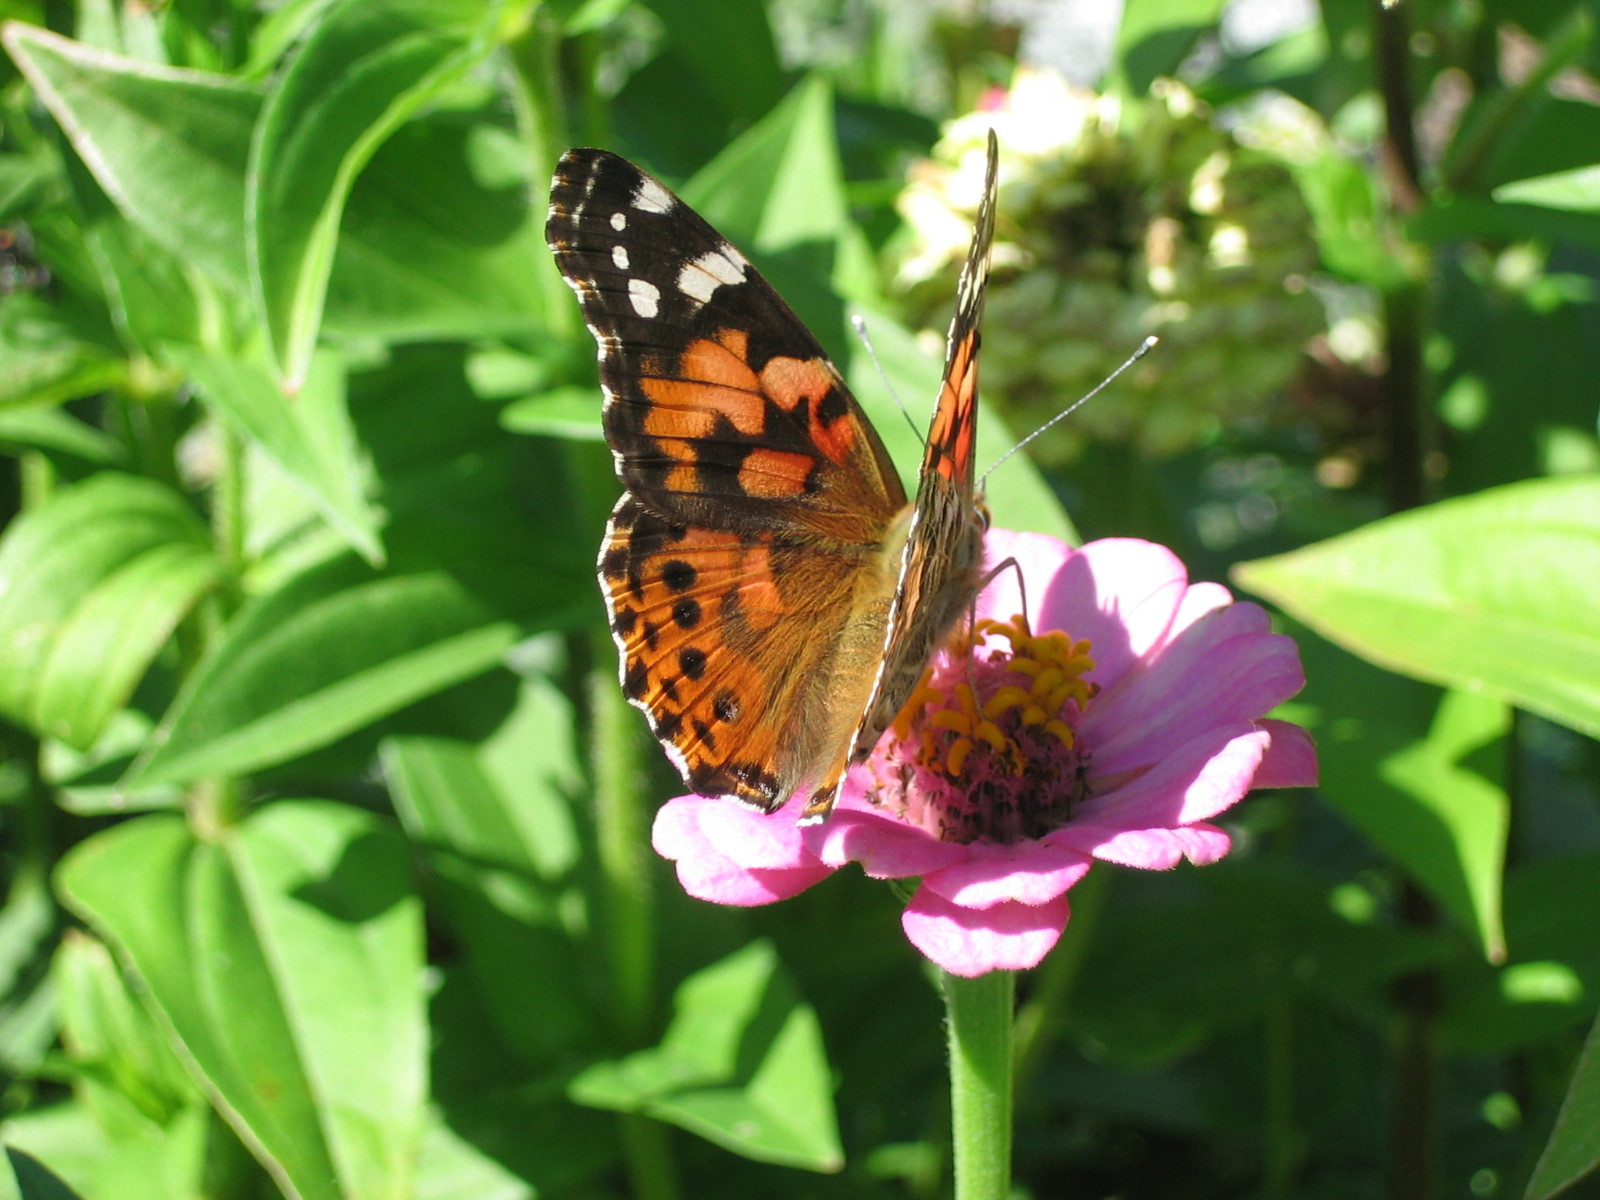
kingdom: Animalia
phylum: Arthropoda
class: Insecta
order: Lepidoptera
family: Nymphalidae
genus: Vanessa
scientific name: Vanessa cardui
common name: Painted lady
